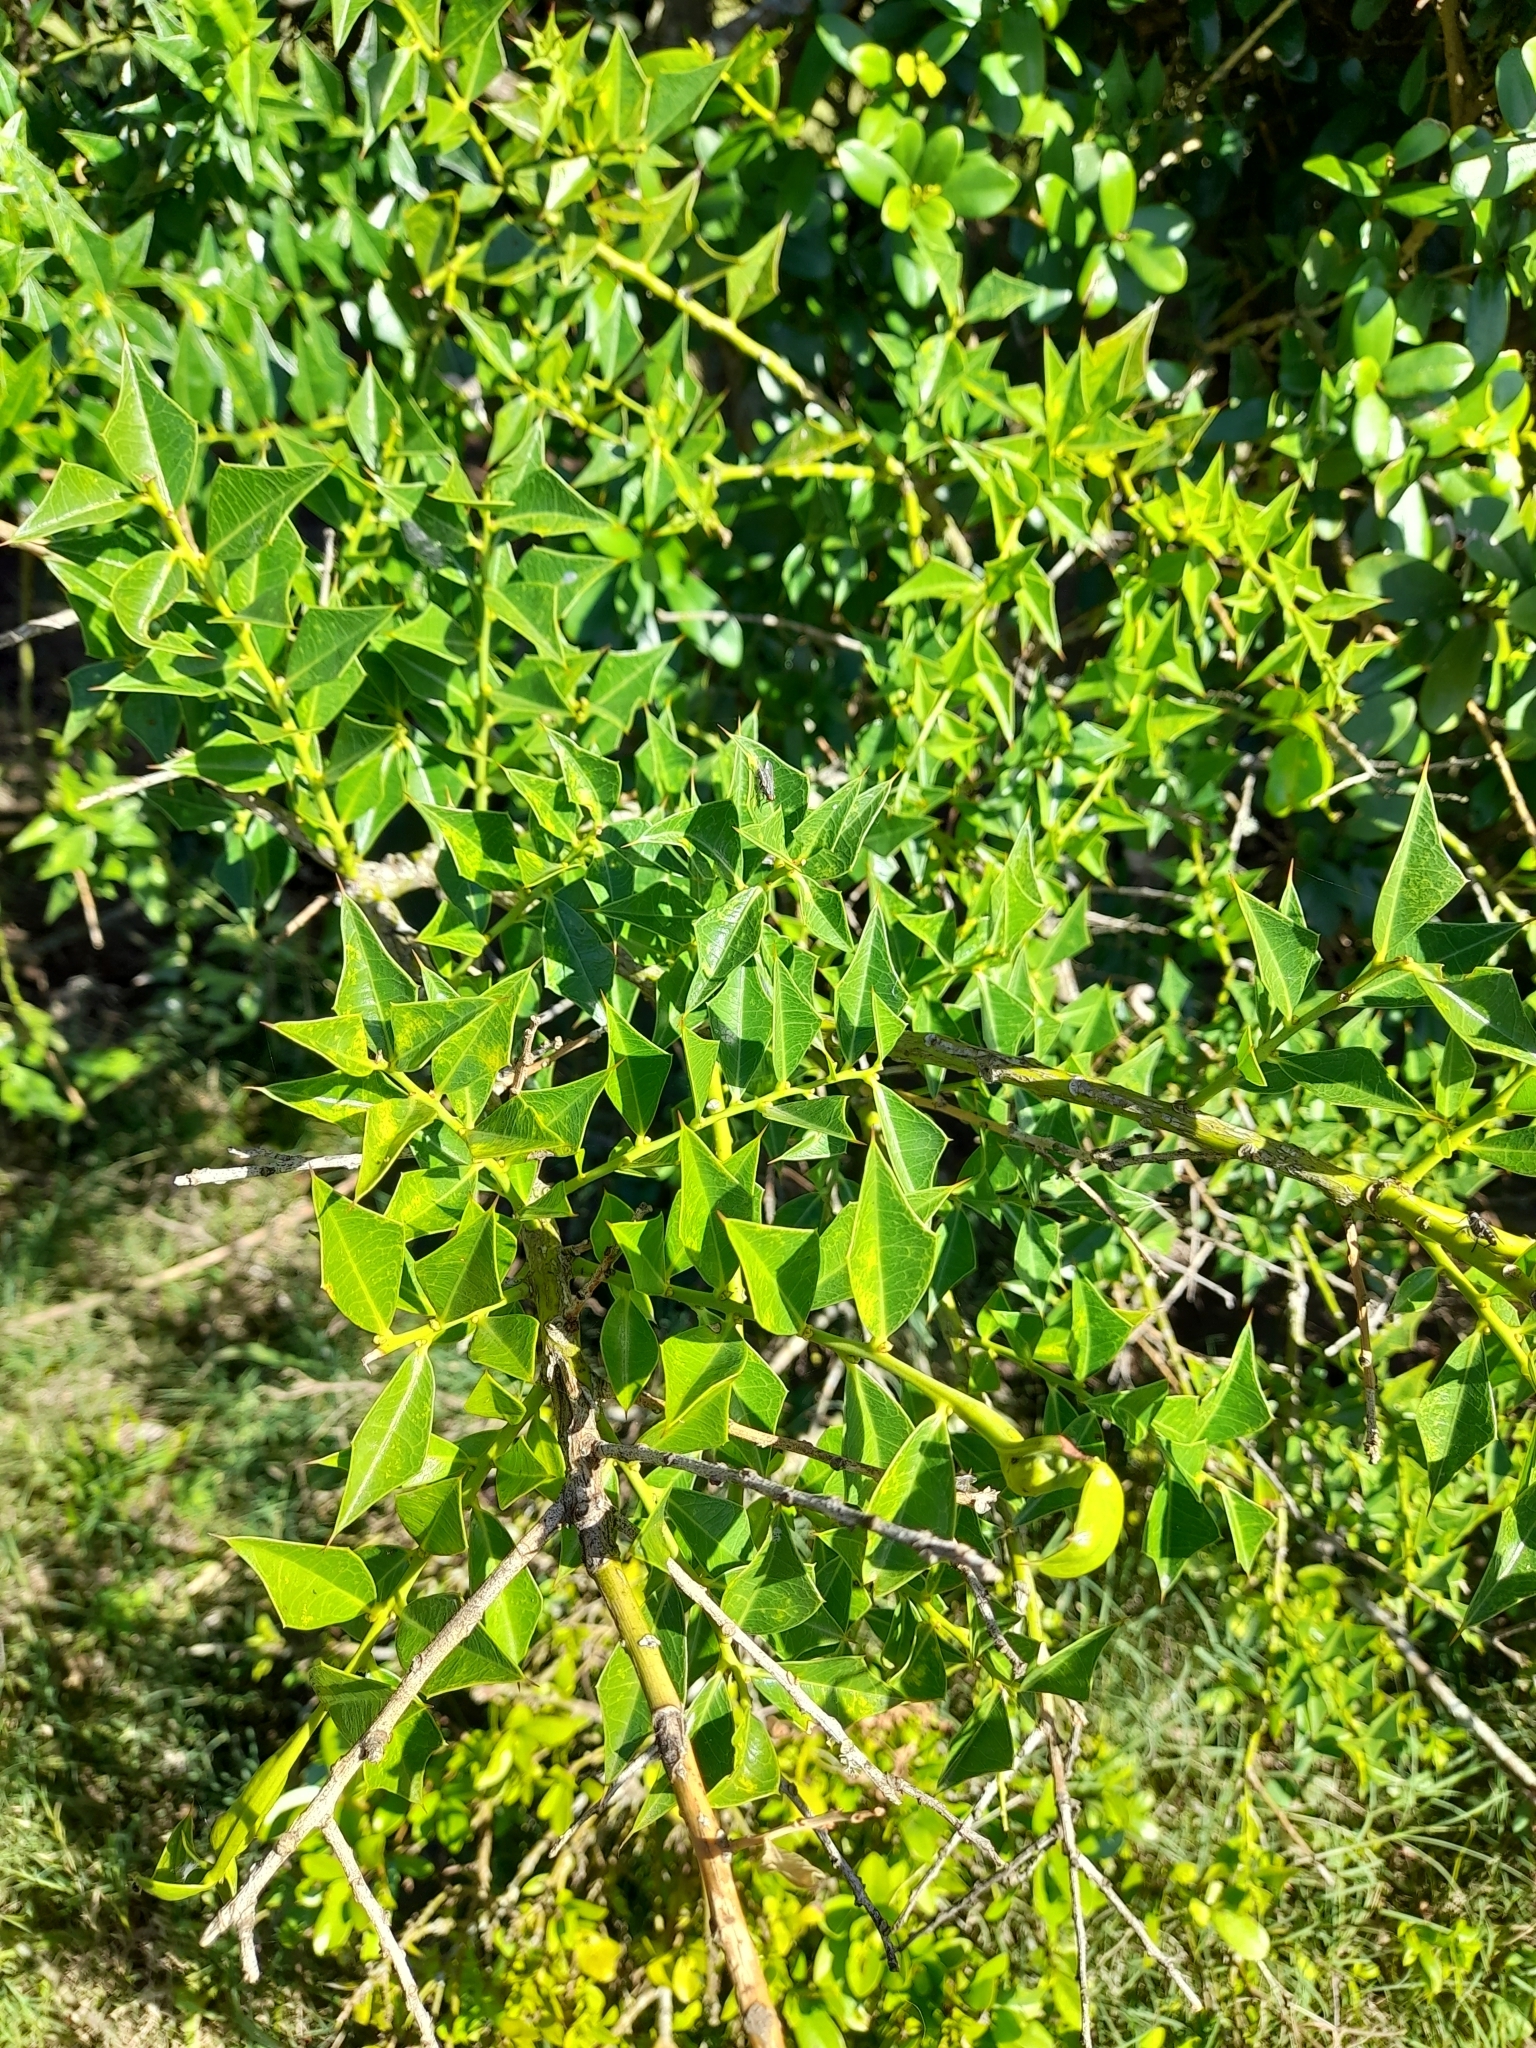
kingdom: Plantae
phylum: Tracheophyta
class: Magnoliopsida
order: Santalales
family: Cervantesiaceae
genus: Jodina
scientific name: Jodina rhombifolia
